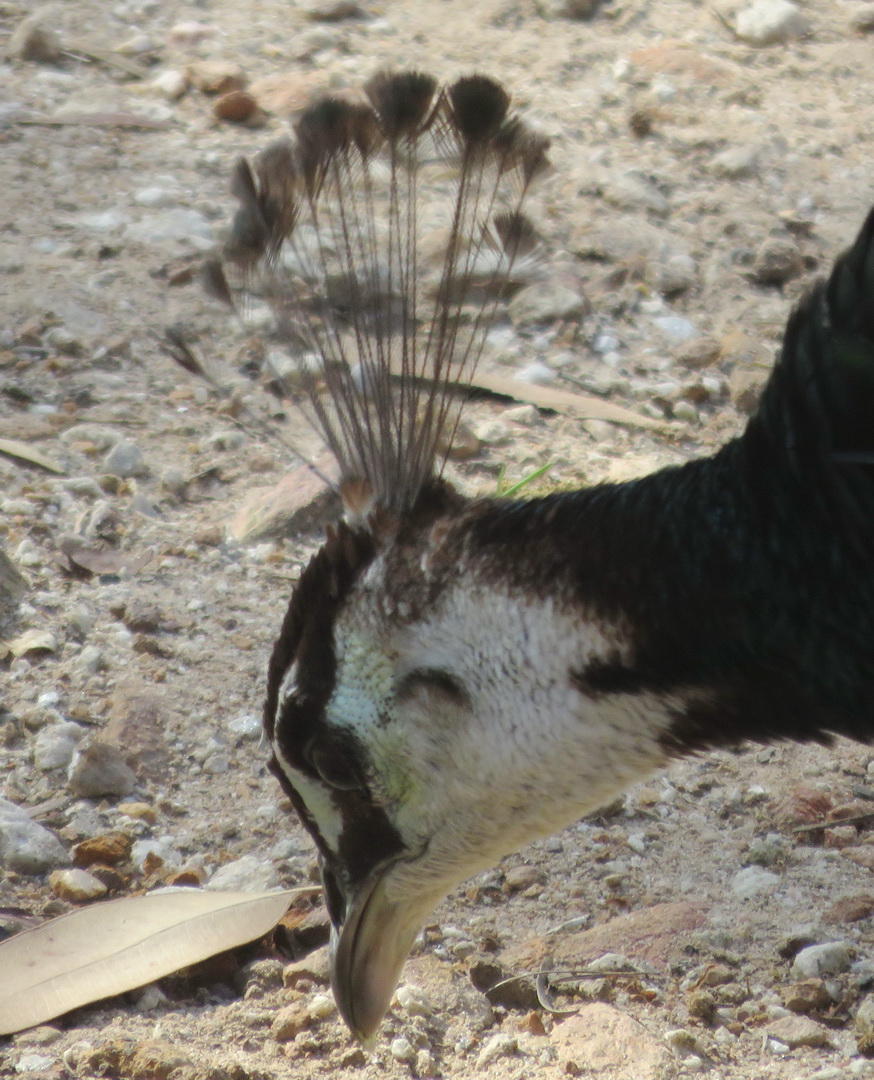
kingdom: Animalia
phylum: Chordata
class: Aves
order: Galliformes
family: Phasianidae
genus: Pavo
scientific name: Pavo cristatus
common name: Indian peafowl
